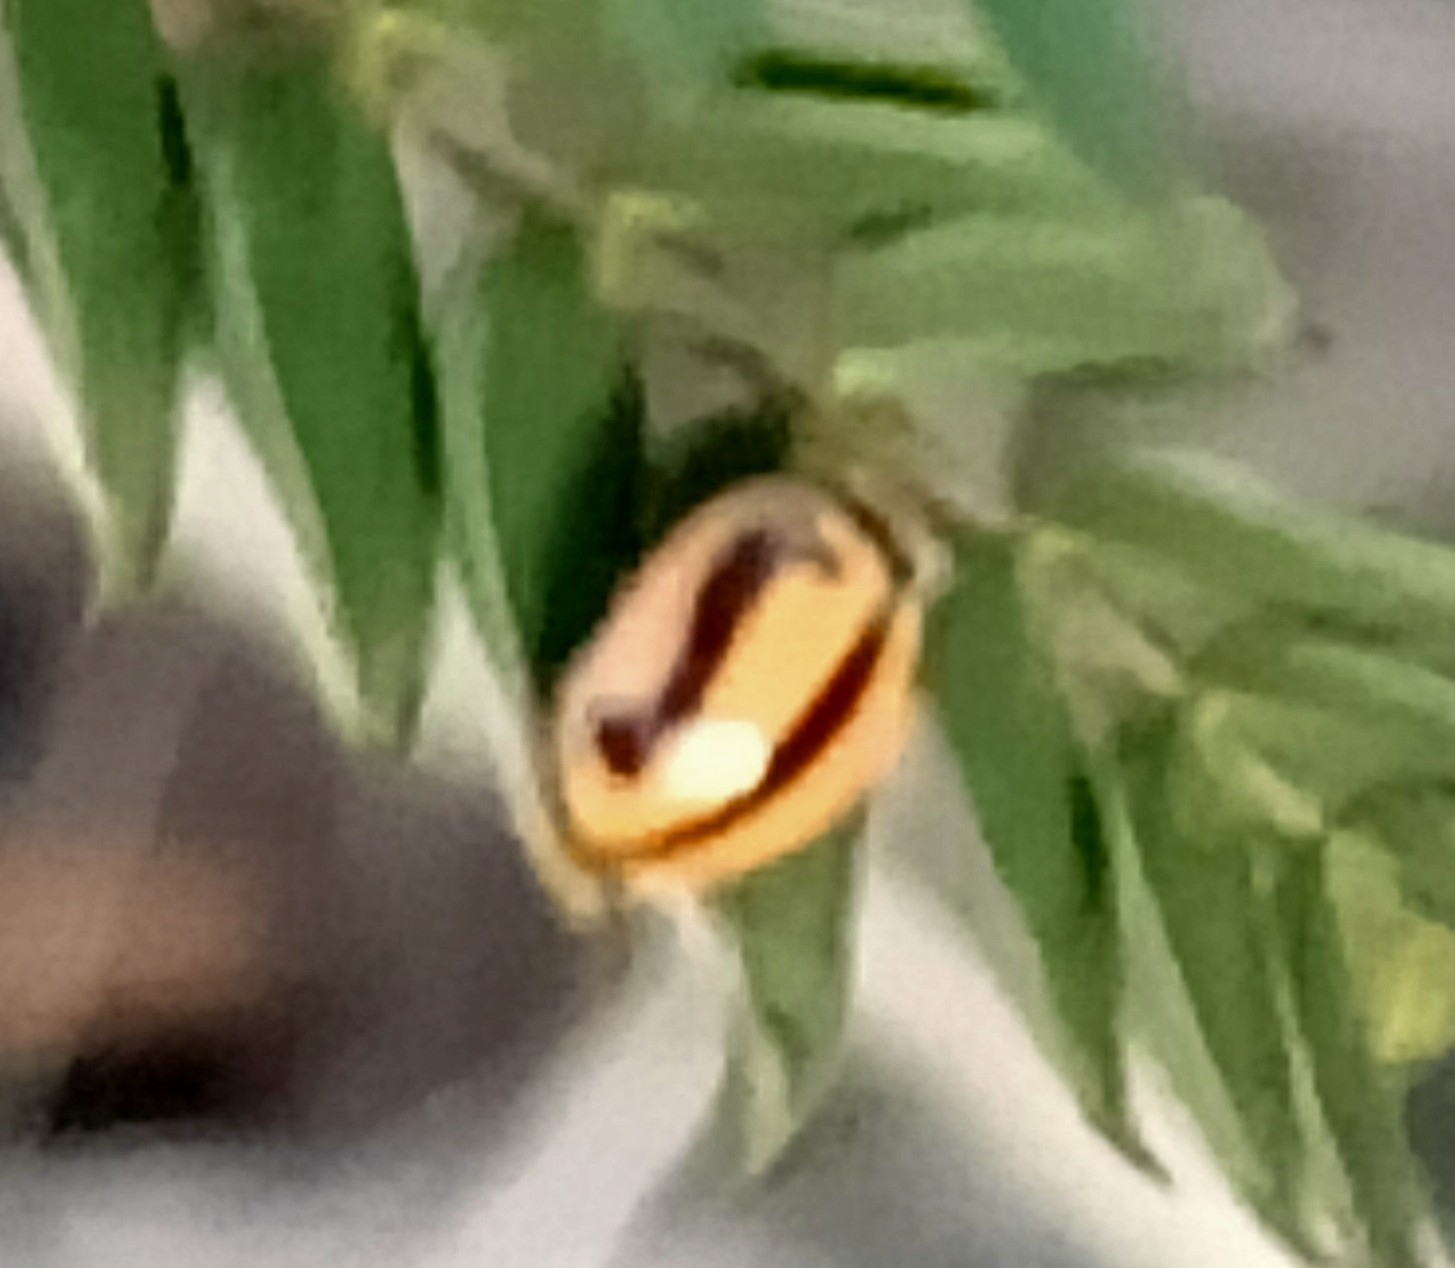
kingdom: Animalia
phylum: Arthropoda
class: Insecta
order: Coleoptera
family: Coccinellidae
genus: Micraspis
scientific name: Micraspis frenata
